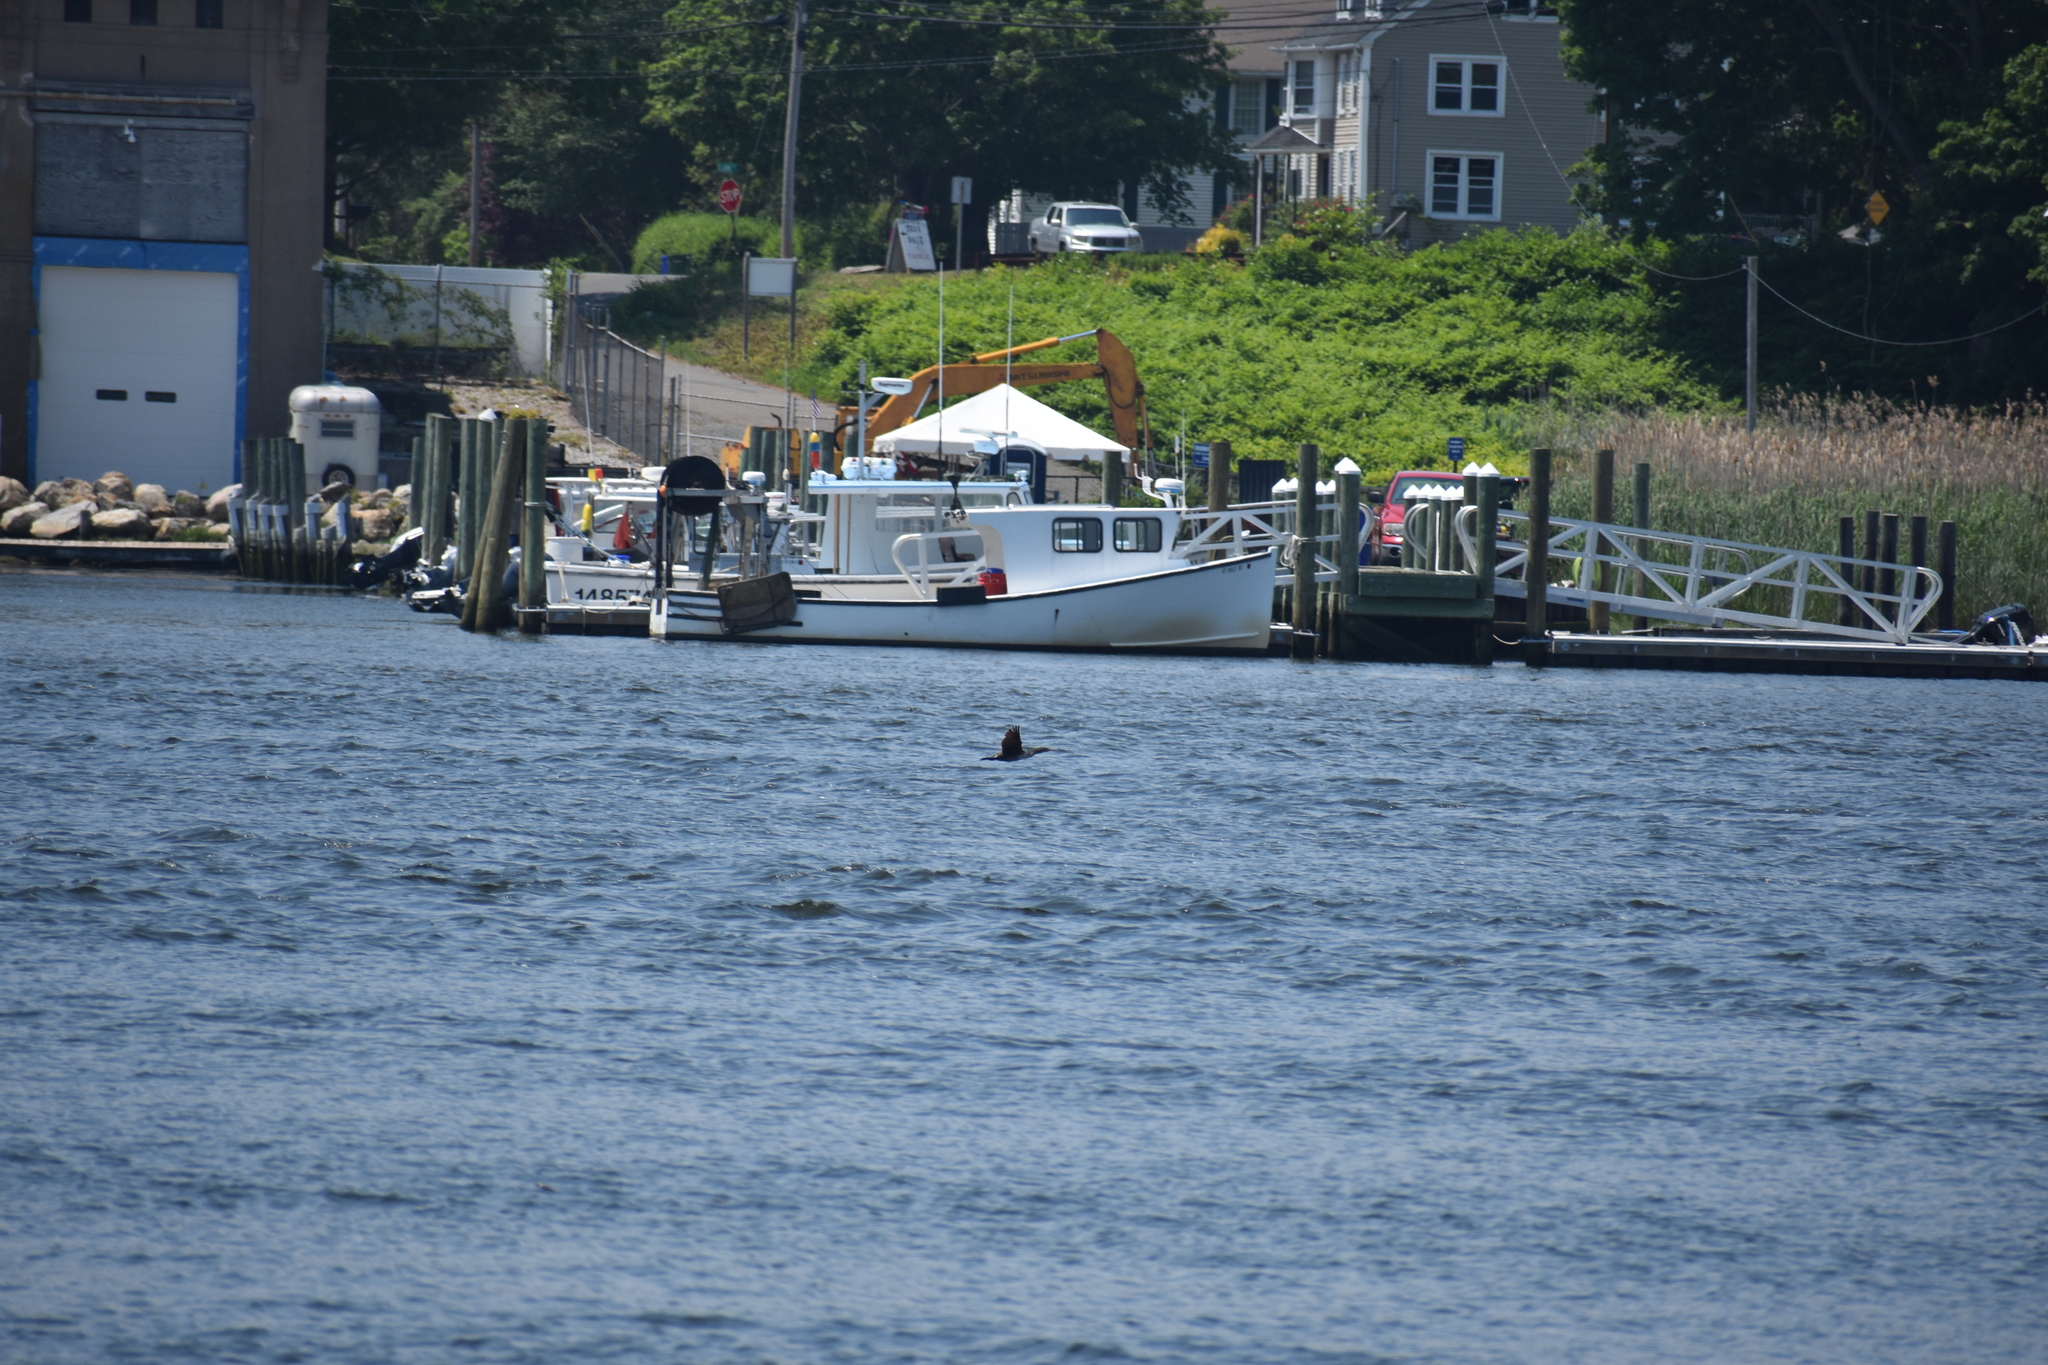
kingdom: Animalia
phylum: Chordata
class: Aves
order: Suliformes
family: Phalacrocoracidae
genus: Phalacrocorax
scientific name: Phalacrocorax auritus
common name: Double-crested cormorant
